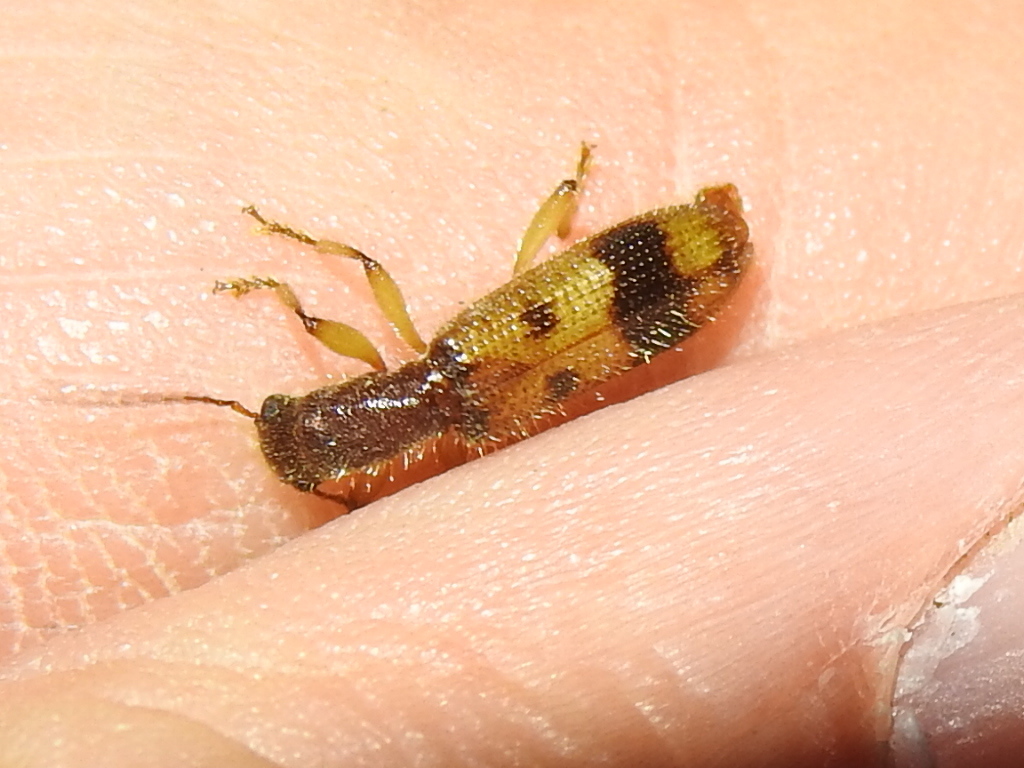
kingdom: Animalia
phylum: Arthropoda
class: Insecta
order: Coleoptera
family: Cleridae
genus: Cymatodera
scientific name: Cymatodera balteata
